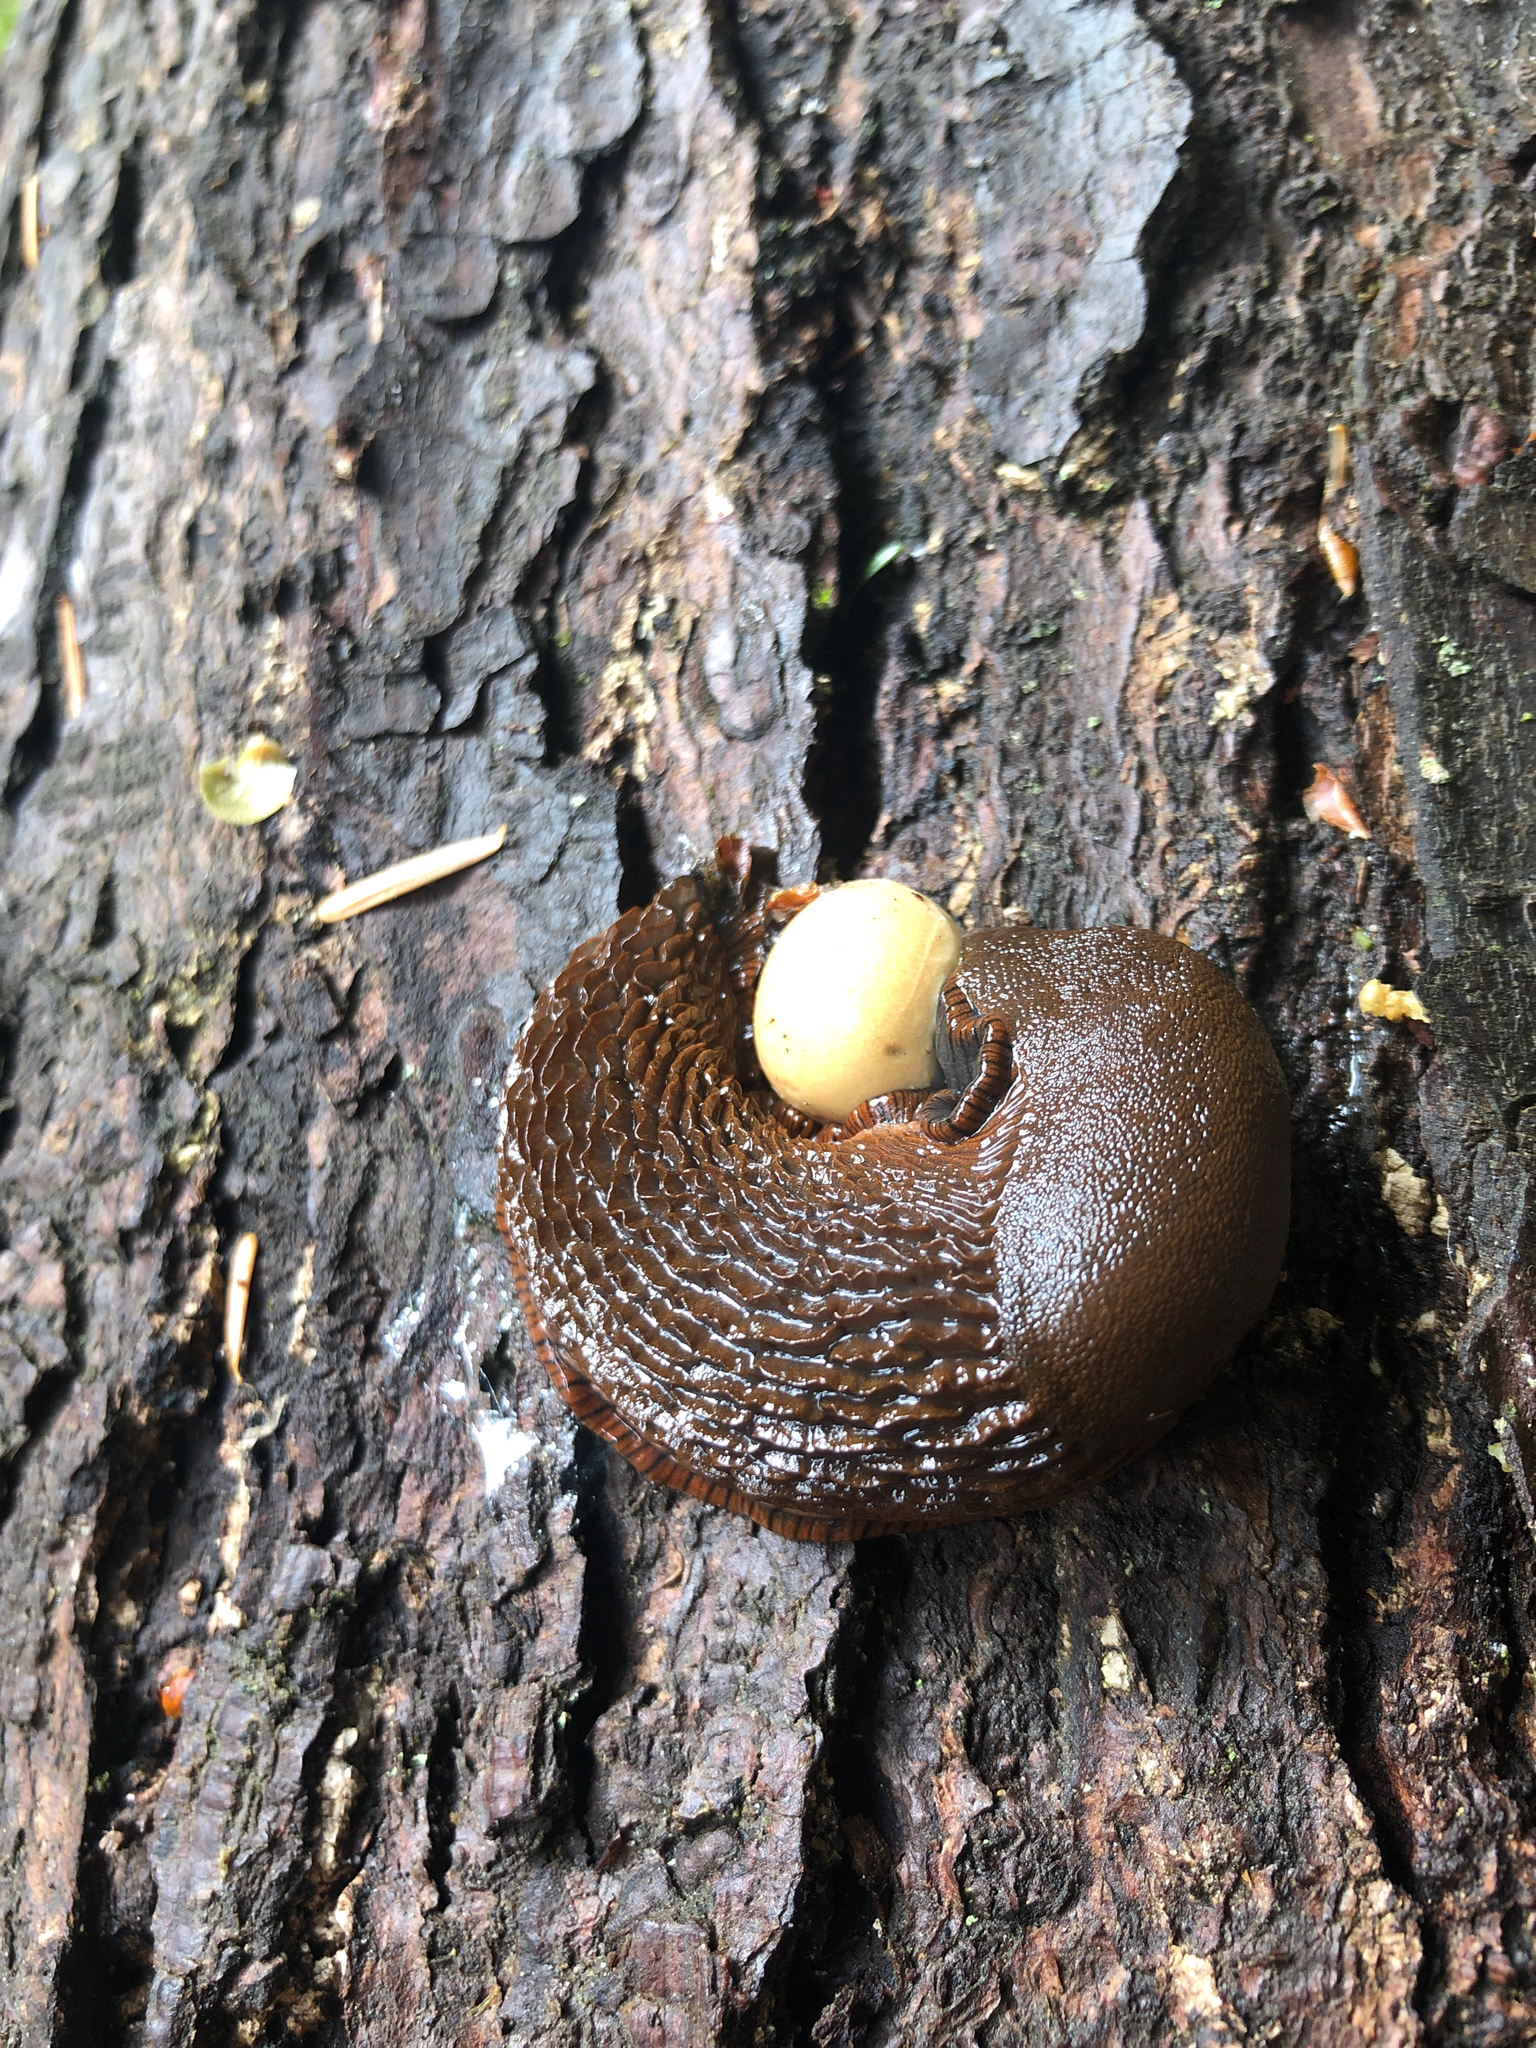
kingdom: Animalia
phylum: Mollusca
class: Gastropoda
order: Stylommatophora
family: Arionidae
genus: Arion
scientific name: Arion
